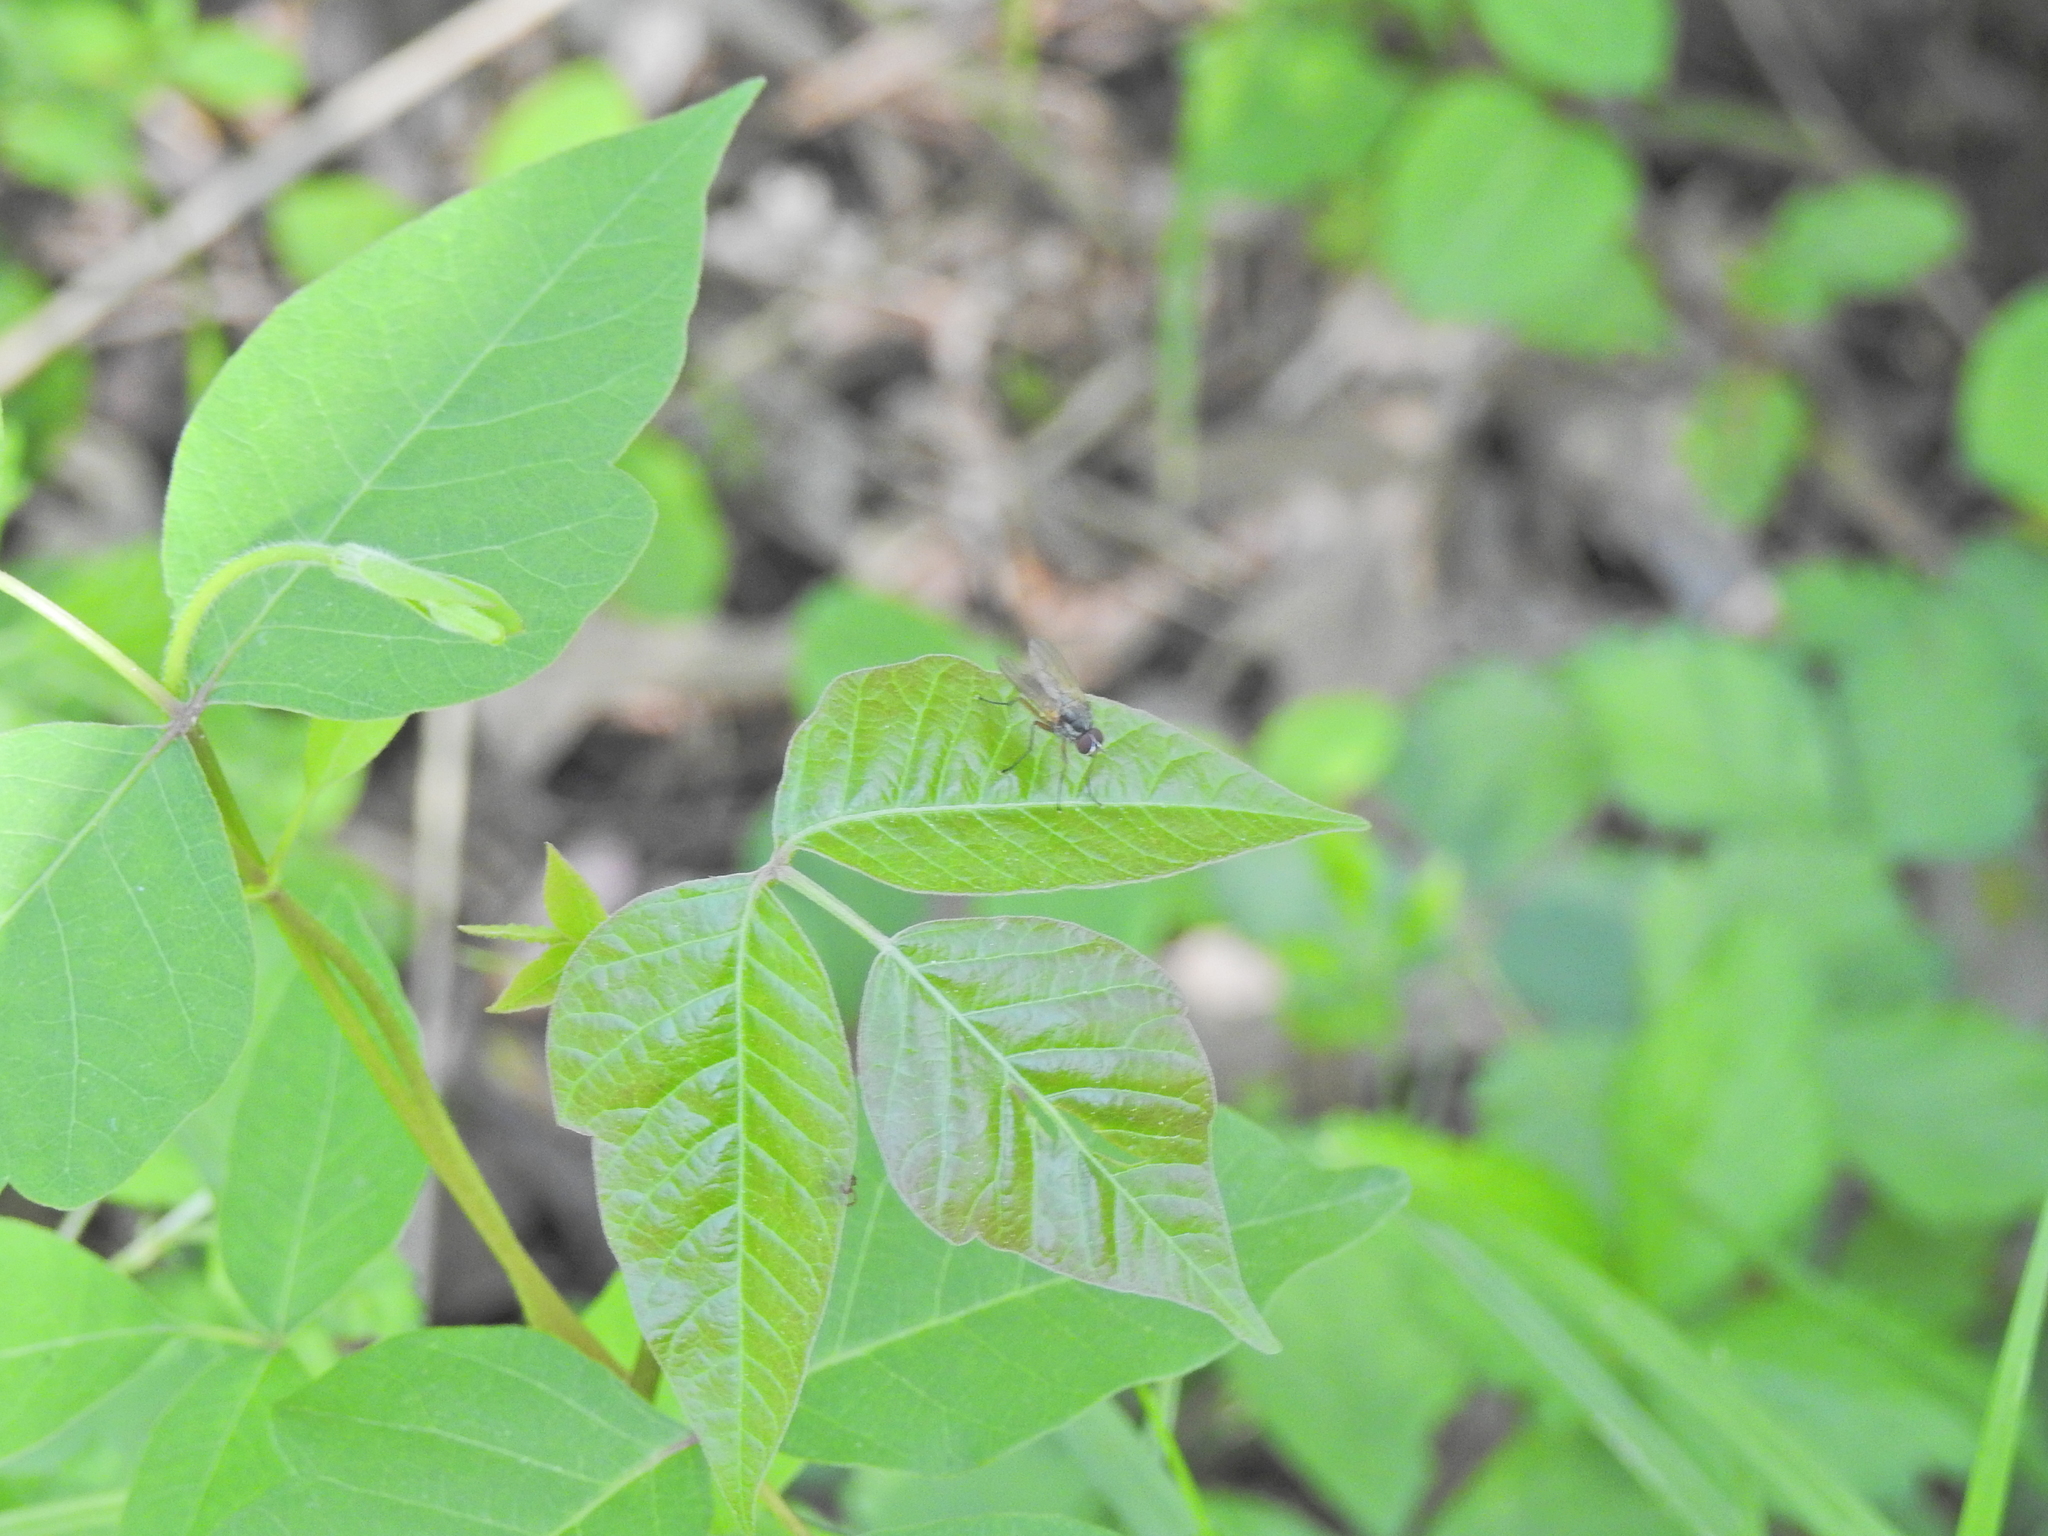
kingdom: Plantae
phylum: Tracheophyta
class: Magnoliopsida
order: Sapindales
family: Anacardiaceae
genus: Toxicodendron
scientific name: Toxicodendron radicans
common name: Poison ivy
